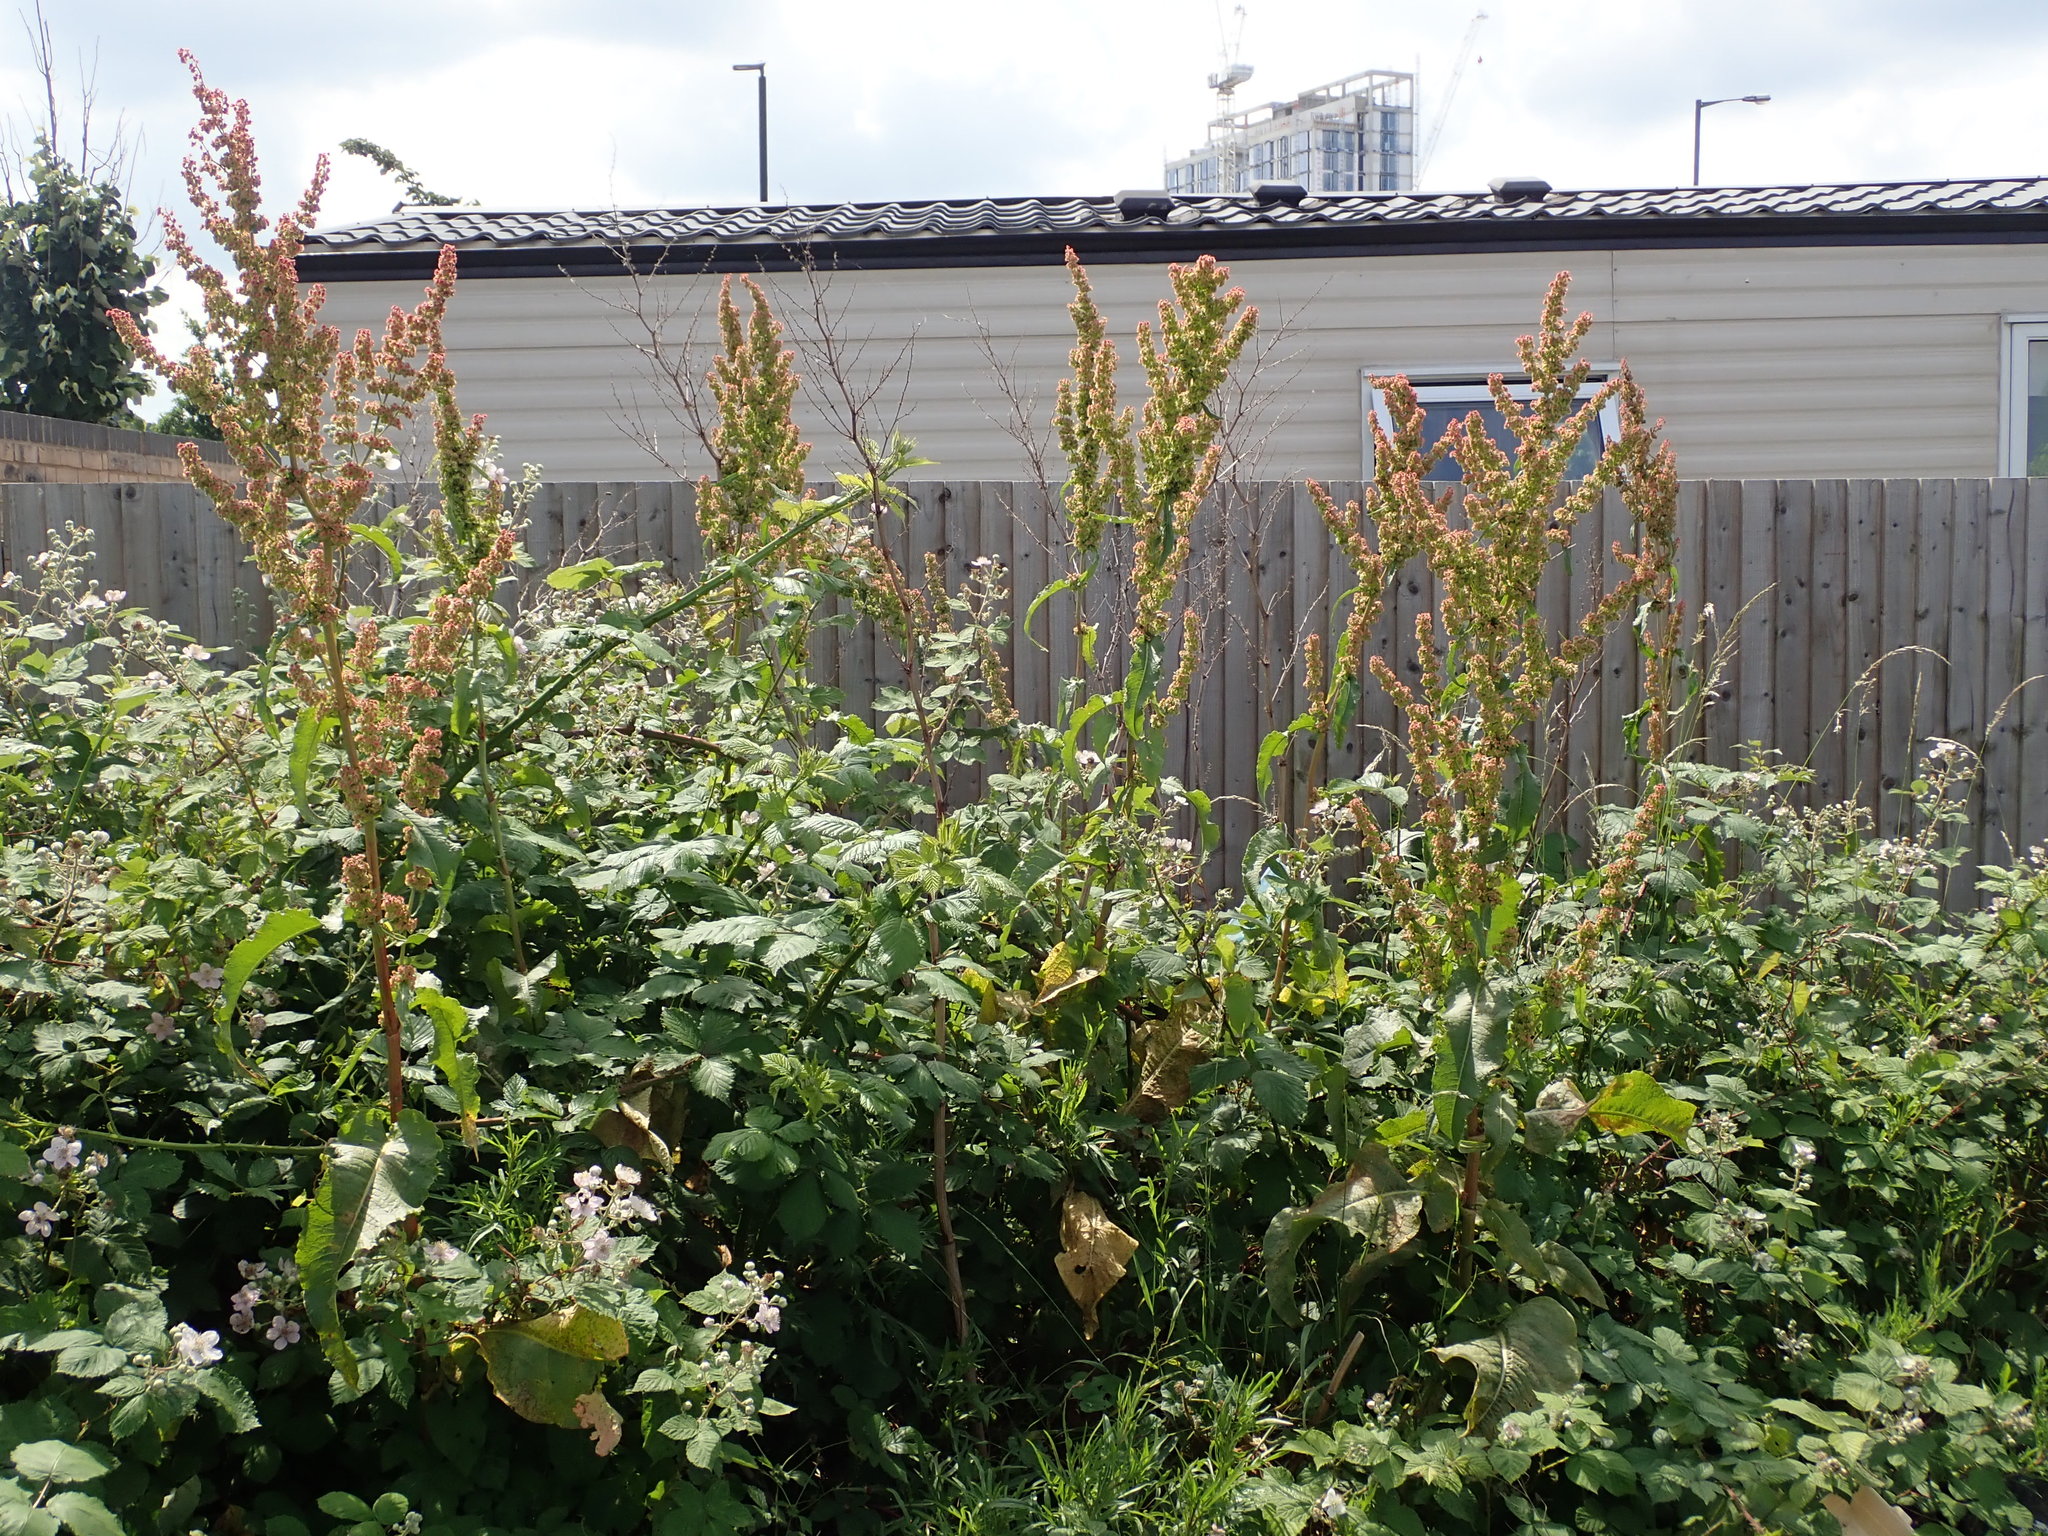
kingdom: Plantae
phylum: Tracheophyta
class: Magnoliopsida
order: Caryophyllales
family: Polygonaceae
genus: Rumex
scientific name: Rumex cristatus
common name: Greek dock
